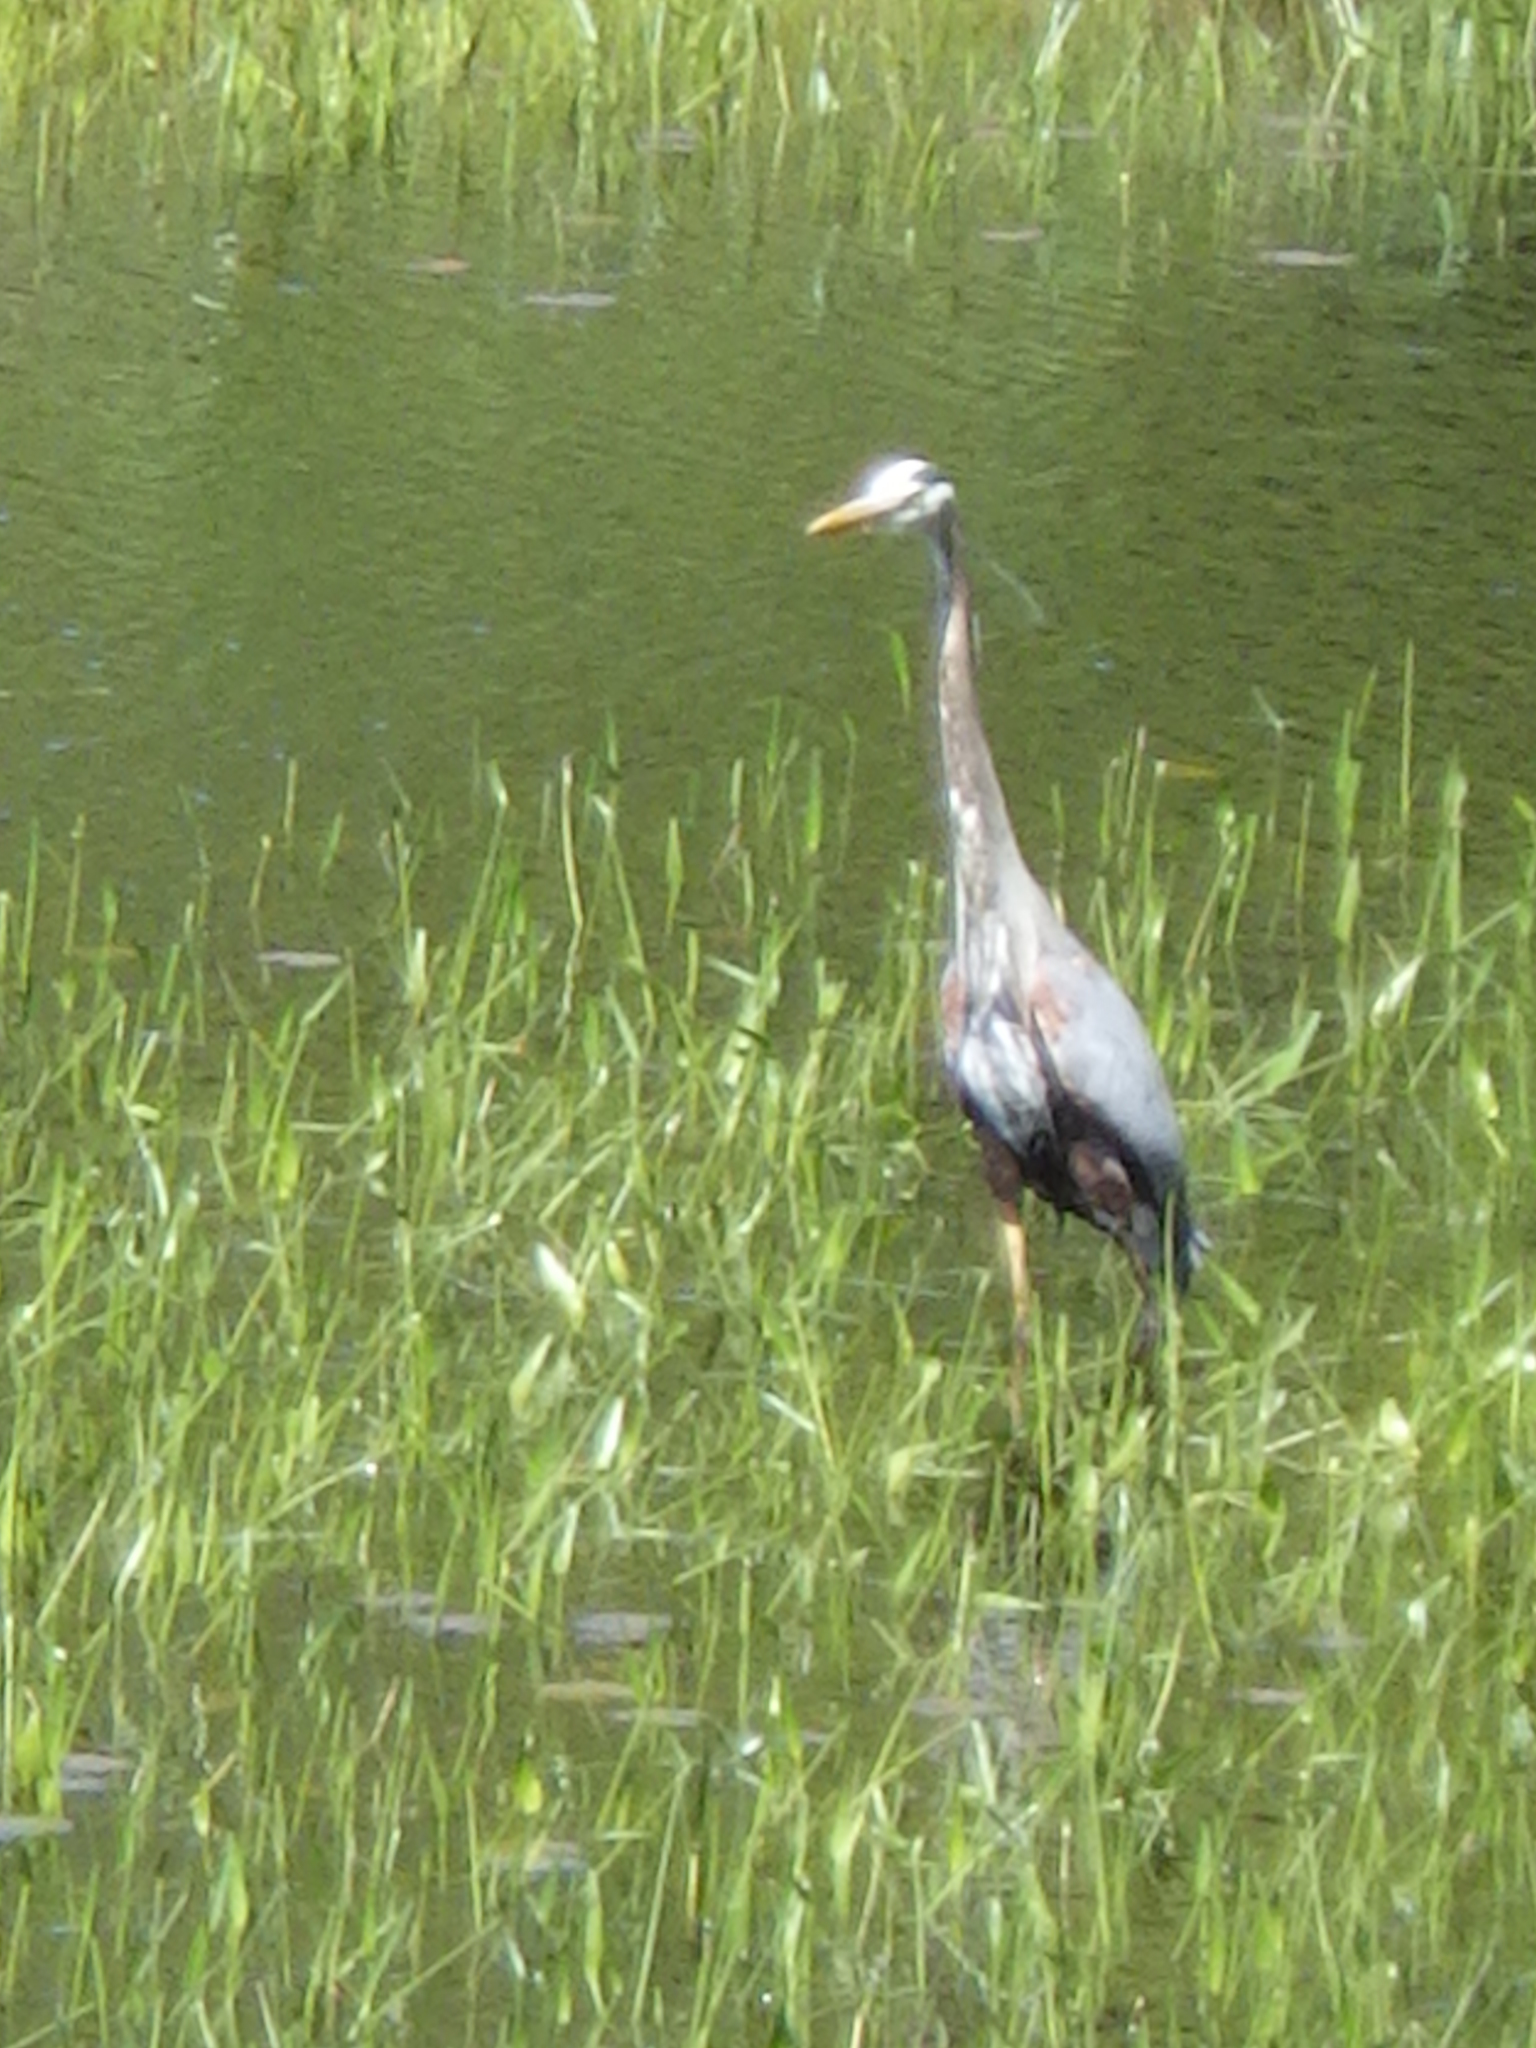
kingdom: Animalia
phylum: Chordata
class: Aves
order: Pelecaniformes
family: Ardeidae
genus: Ardea
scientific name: Ardea herodias
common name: Great blue heron
